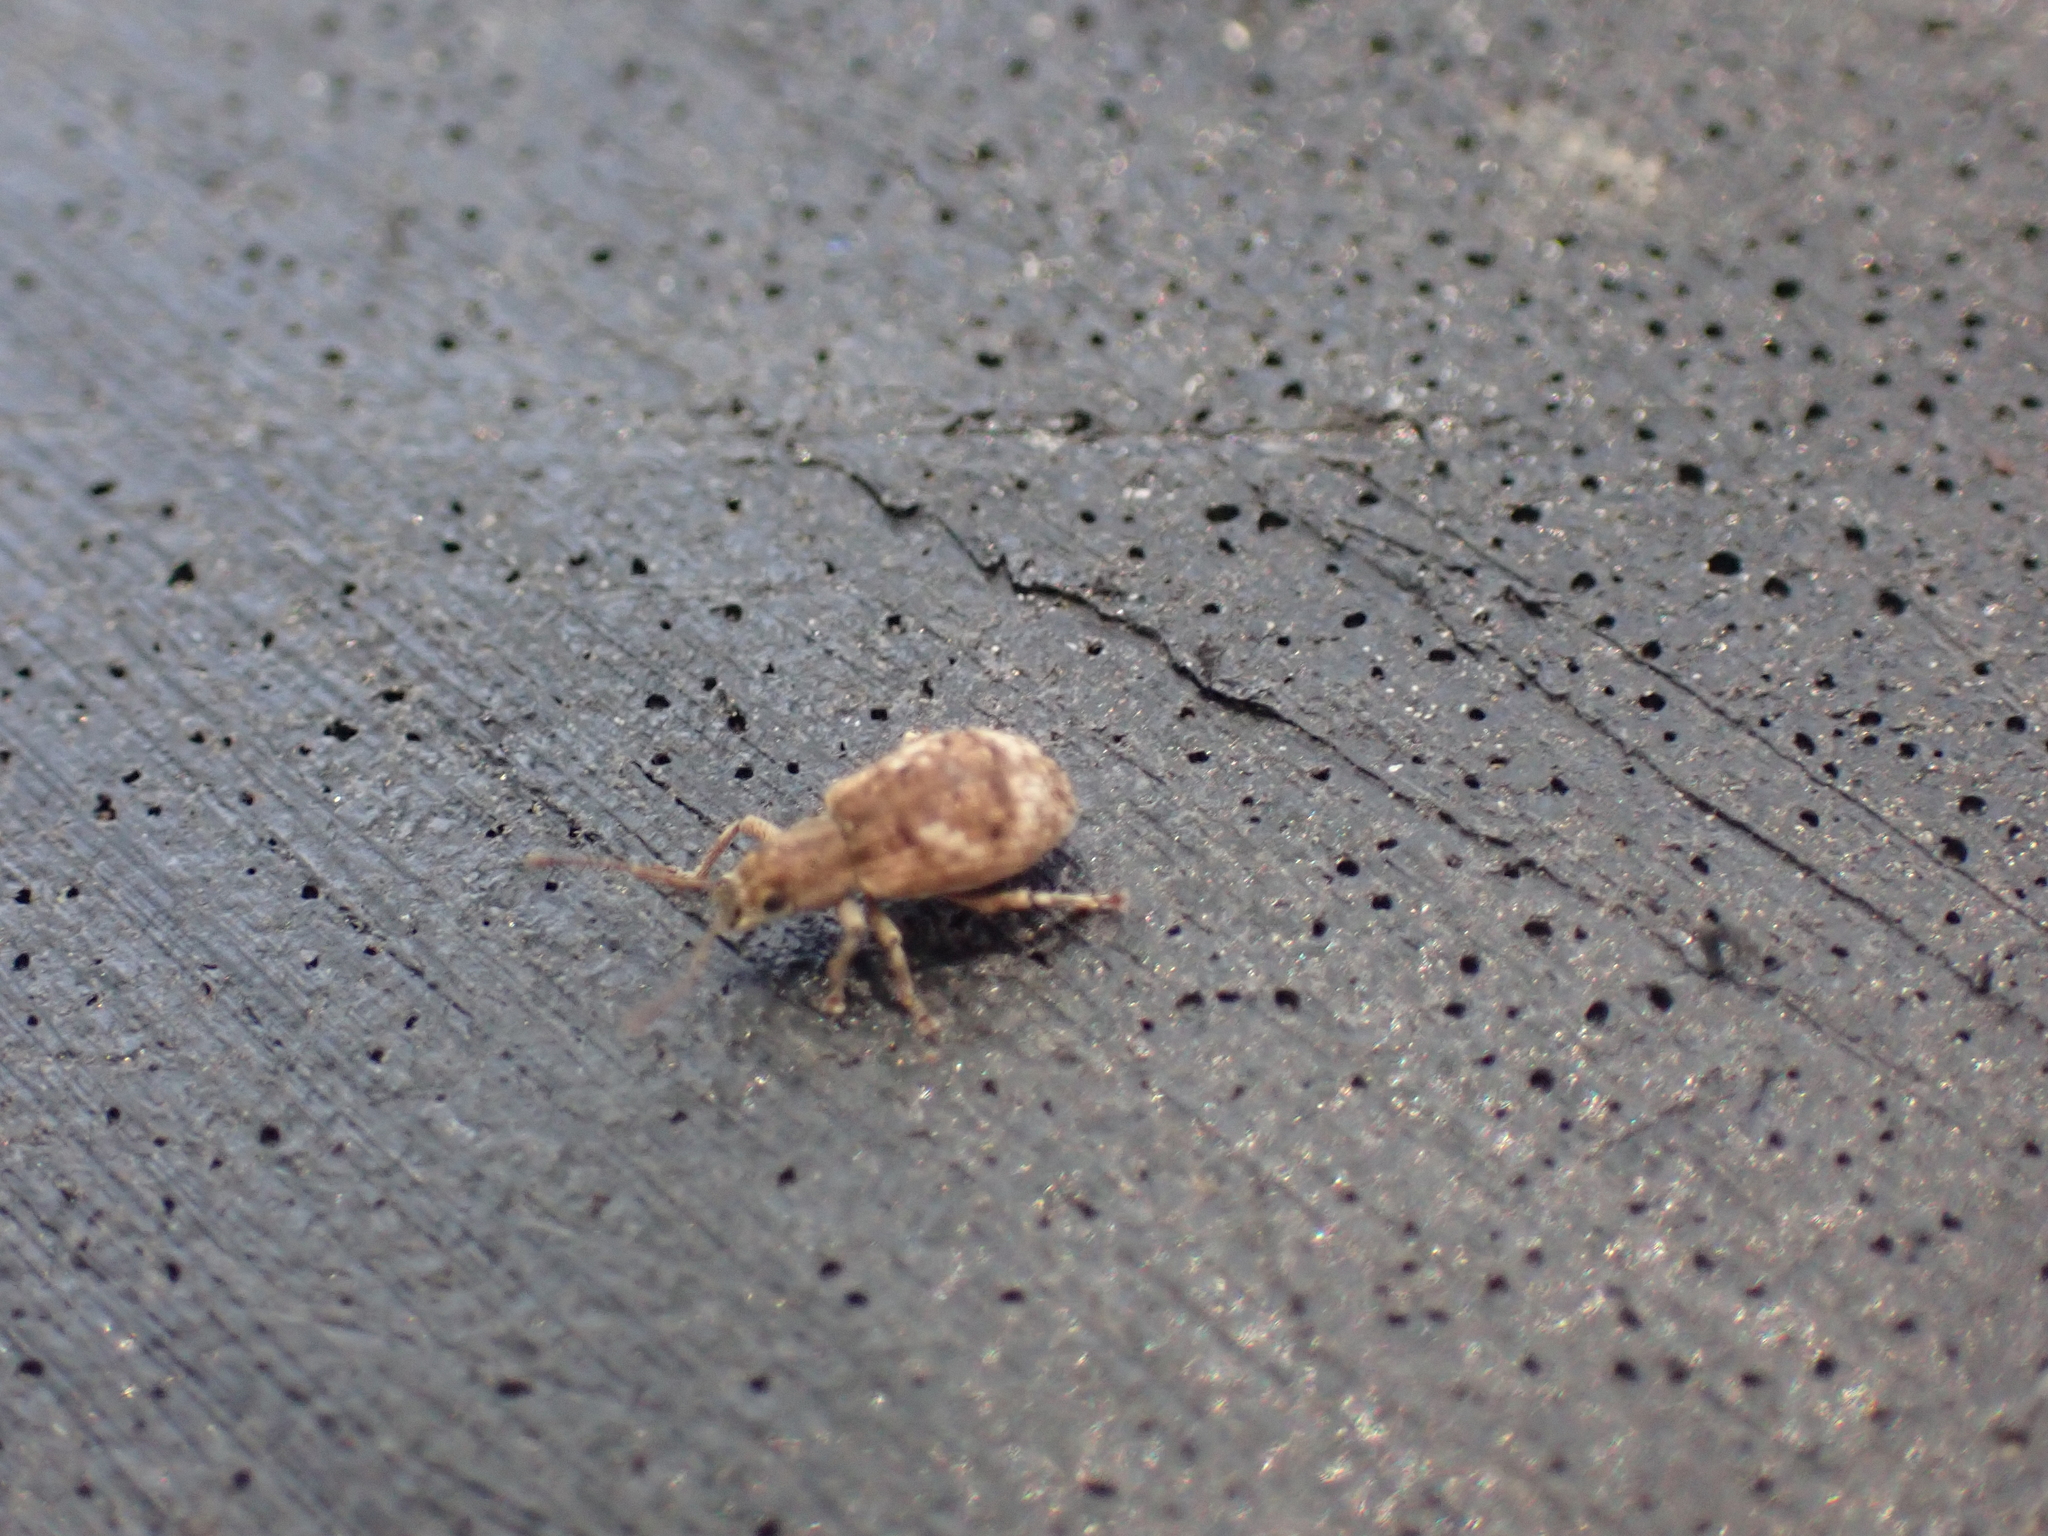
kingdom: Animalia
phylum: Arthropoda
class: Insecta
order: Coleoptera
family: Curculionidae
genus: Pseudoedophrys
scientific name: Pseudoedophrys hilleri
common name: Weevil
